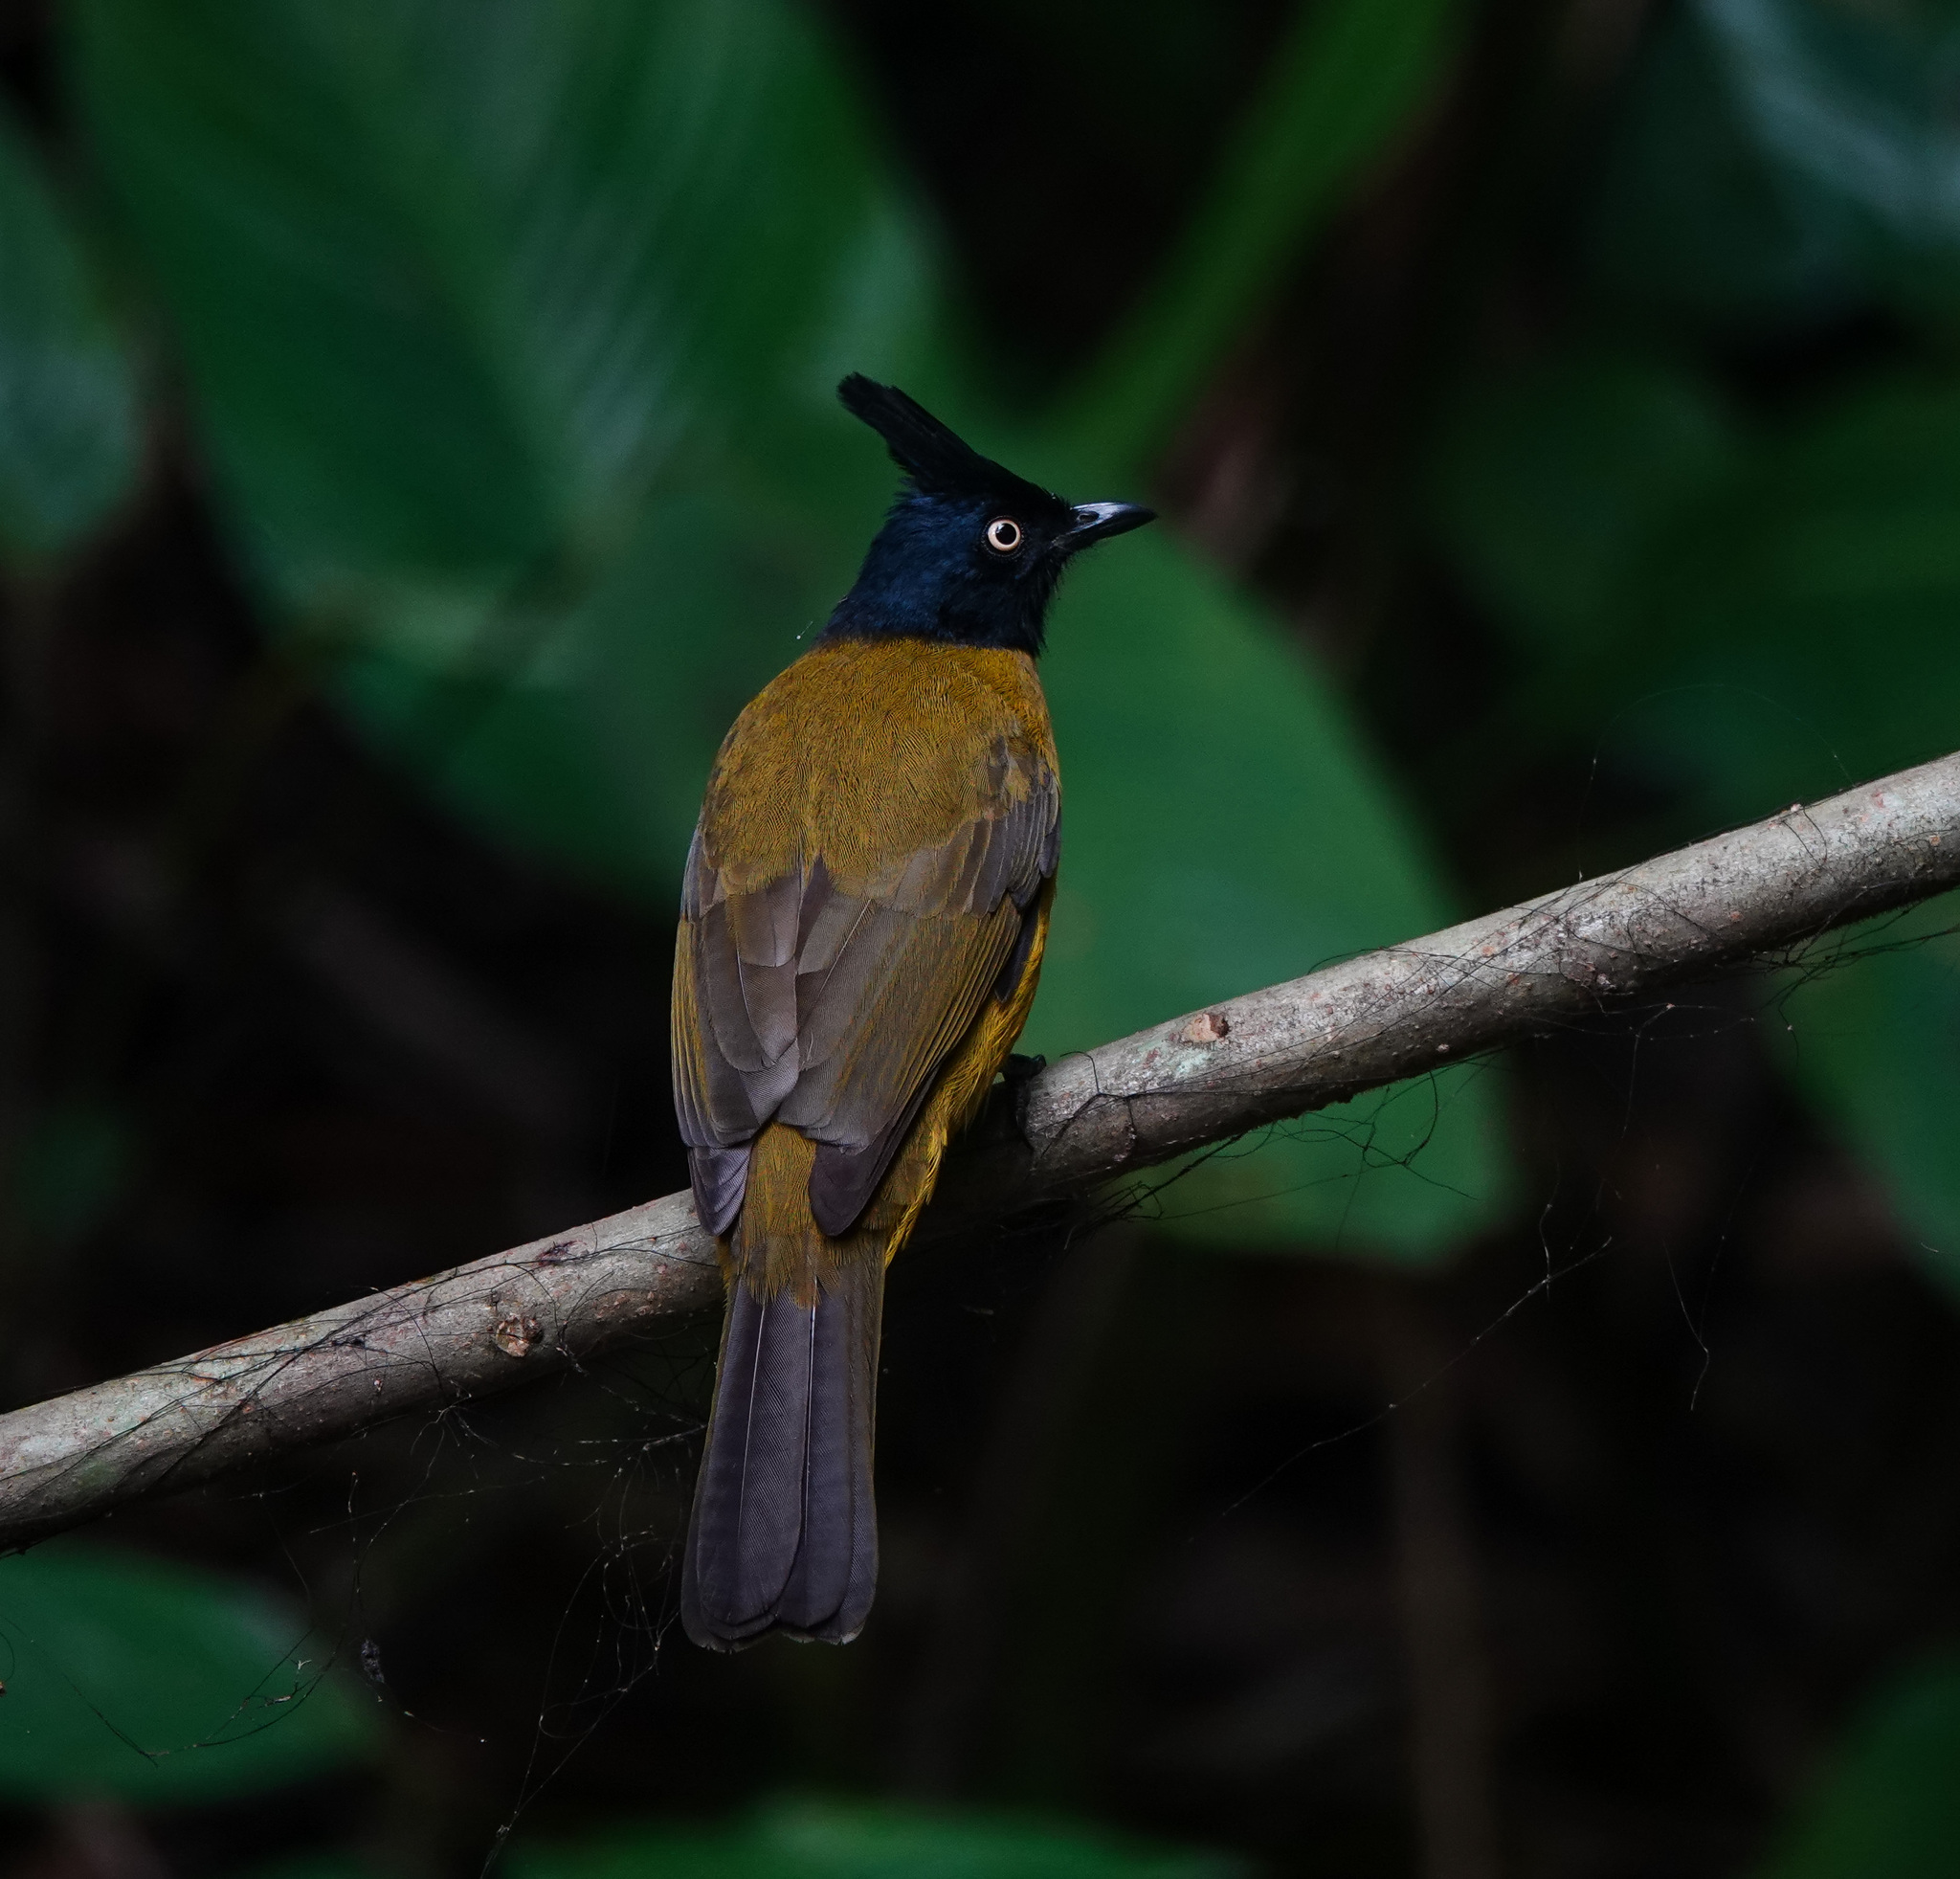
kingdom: Animalia
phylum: Chordata
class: Aves
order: Passeriformes
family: Pycnonotidae
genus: Pycnonotus
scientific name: Pycnonotus flaviventris
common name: Black-crested bulbul
